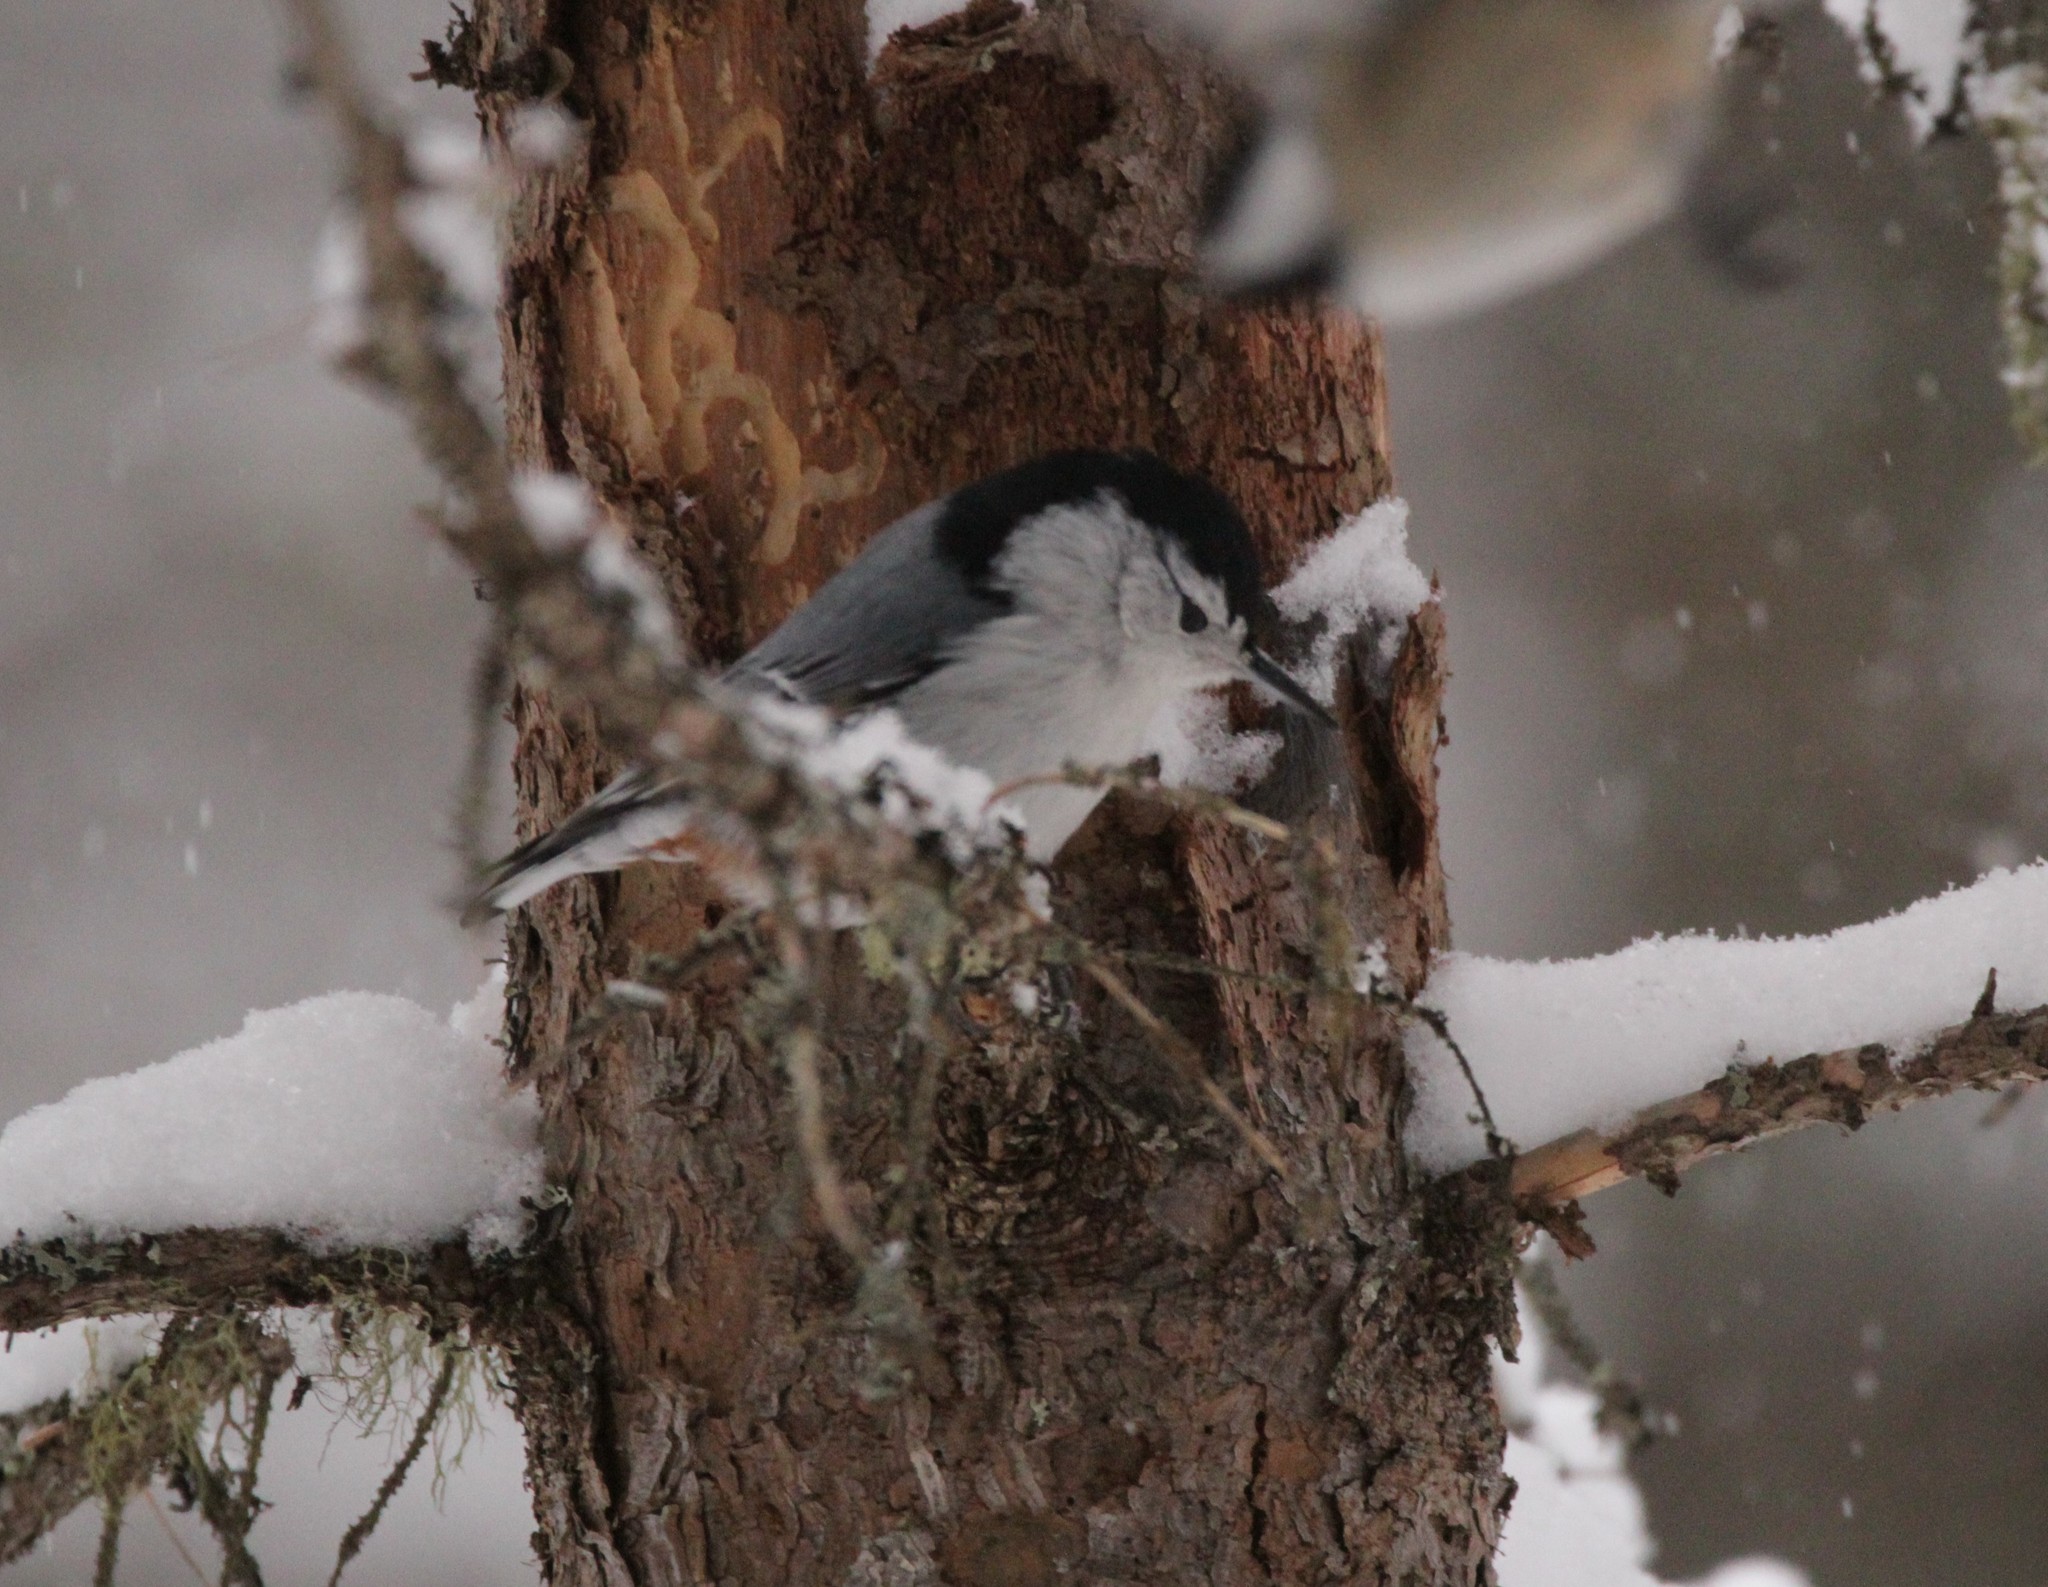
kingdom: Animalia
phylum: Chordata
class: Aves
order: Passeriformes
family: Sittidae
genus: Sitta
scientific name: Sitta carolinensis
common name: White-breasted nuthatch
